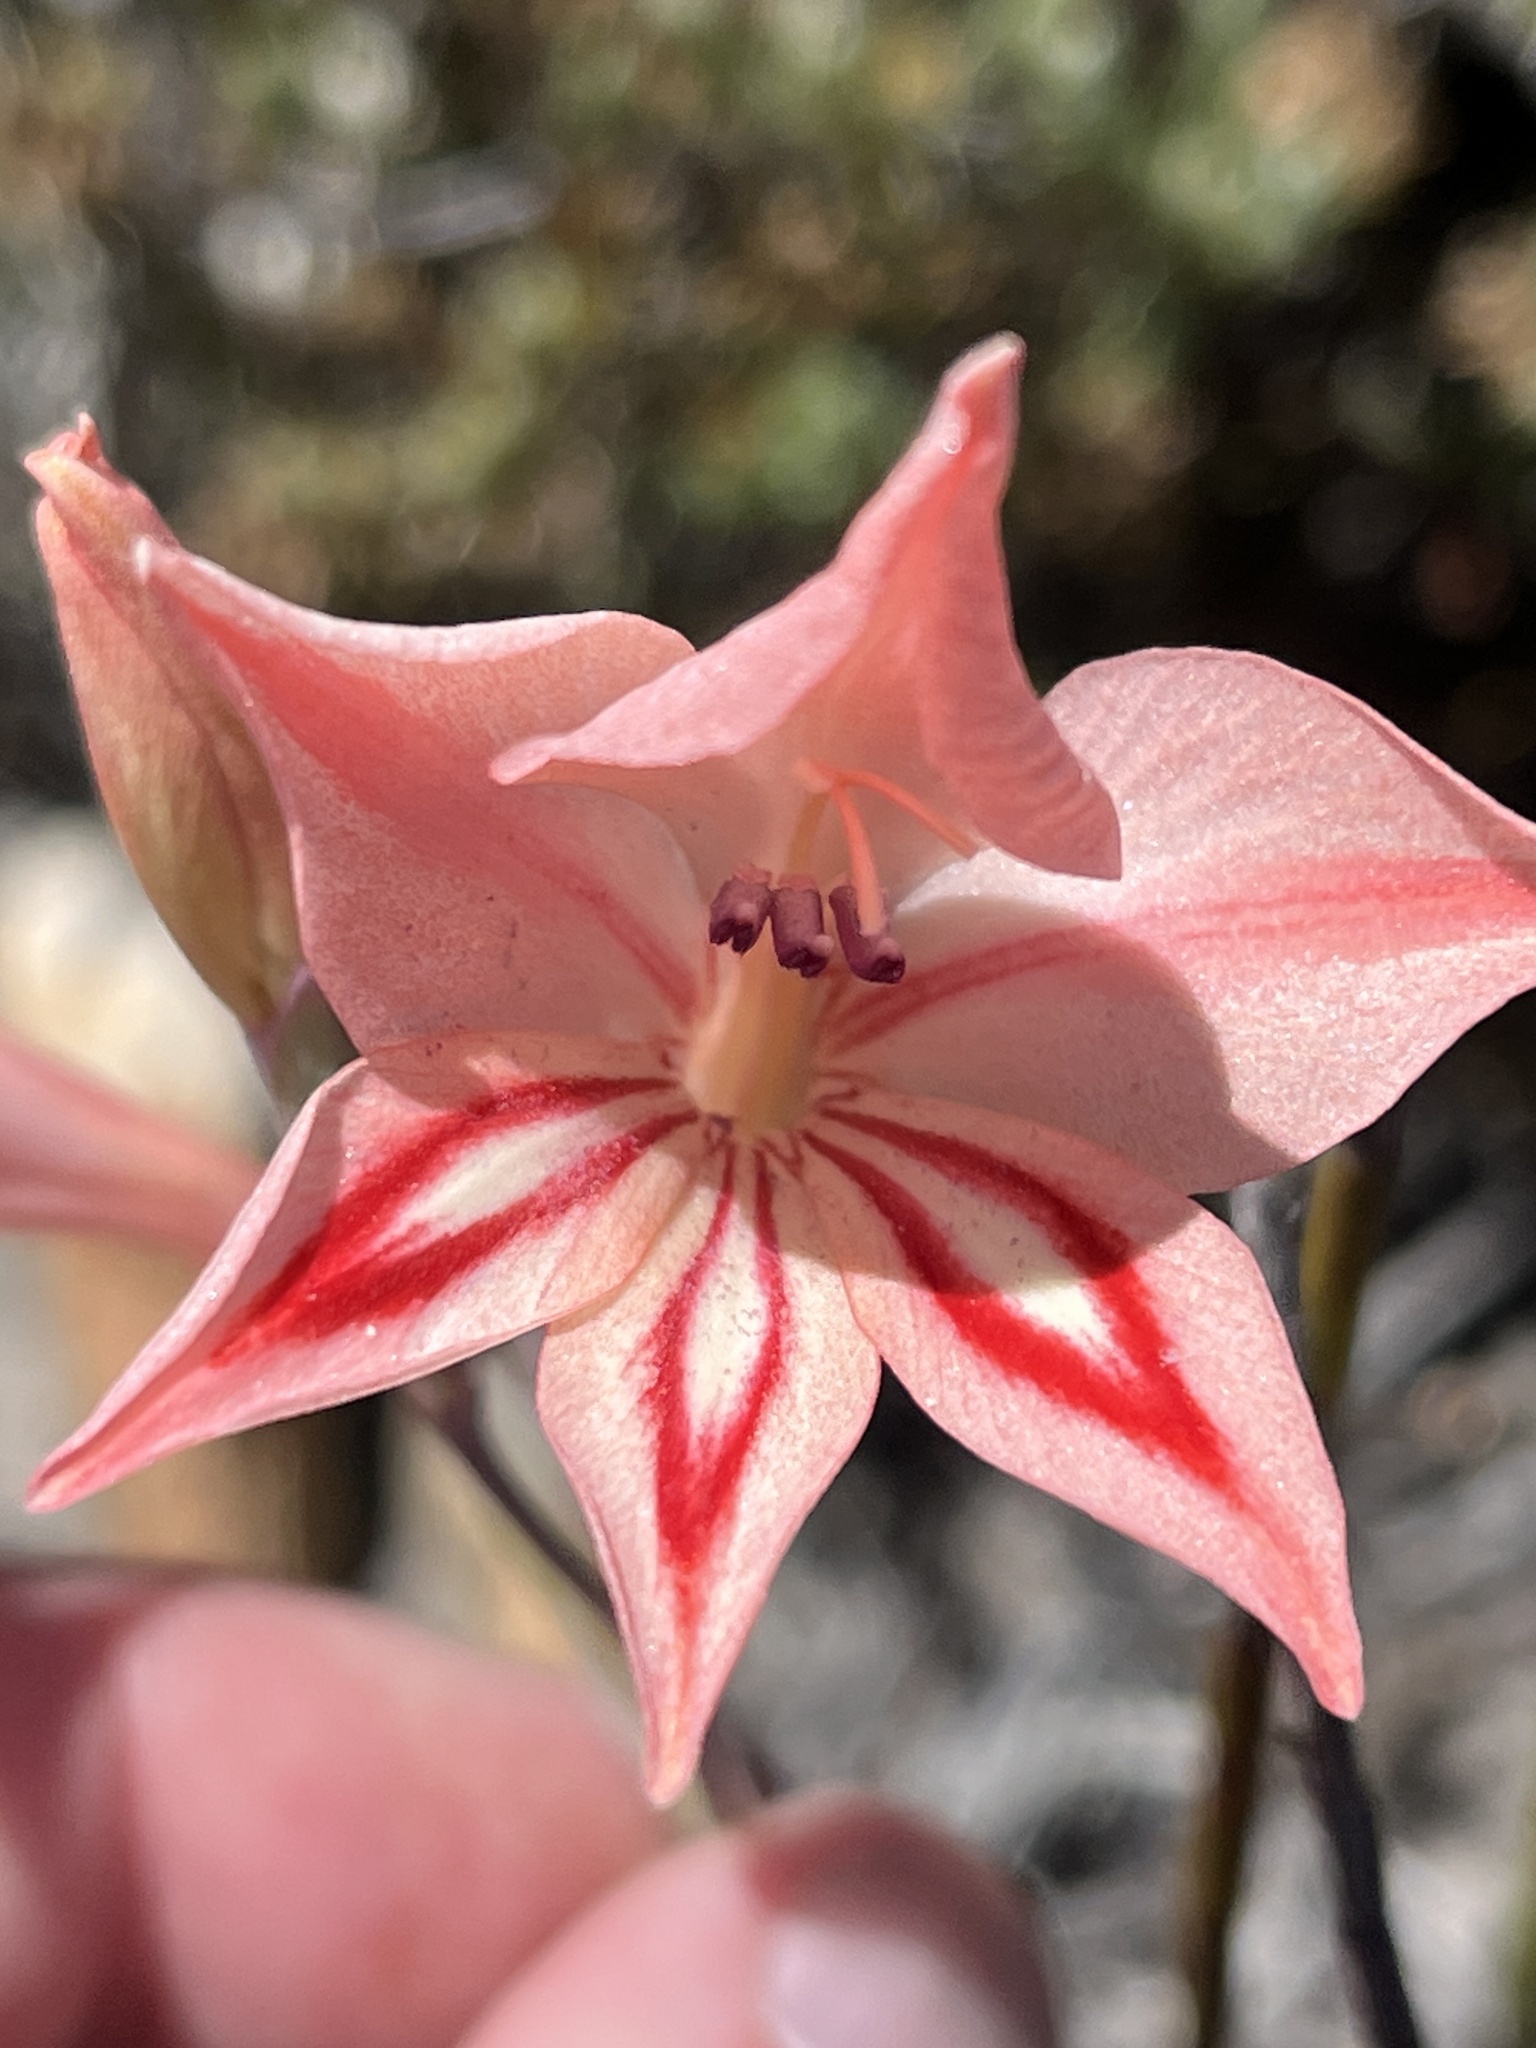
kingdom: Plantae
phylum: Tracheophyta
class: Liliopsida
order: Asparagales
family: Iridaceae
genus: Gladiolus
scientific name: Gladiolus dolichosiphon
